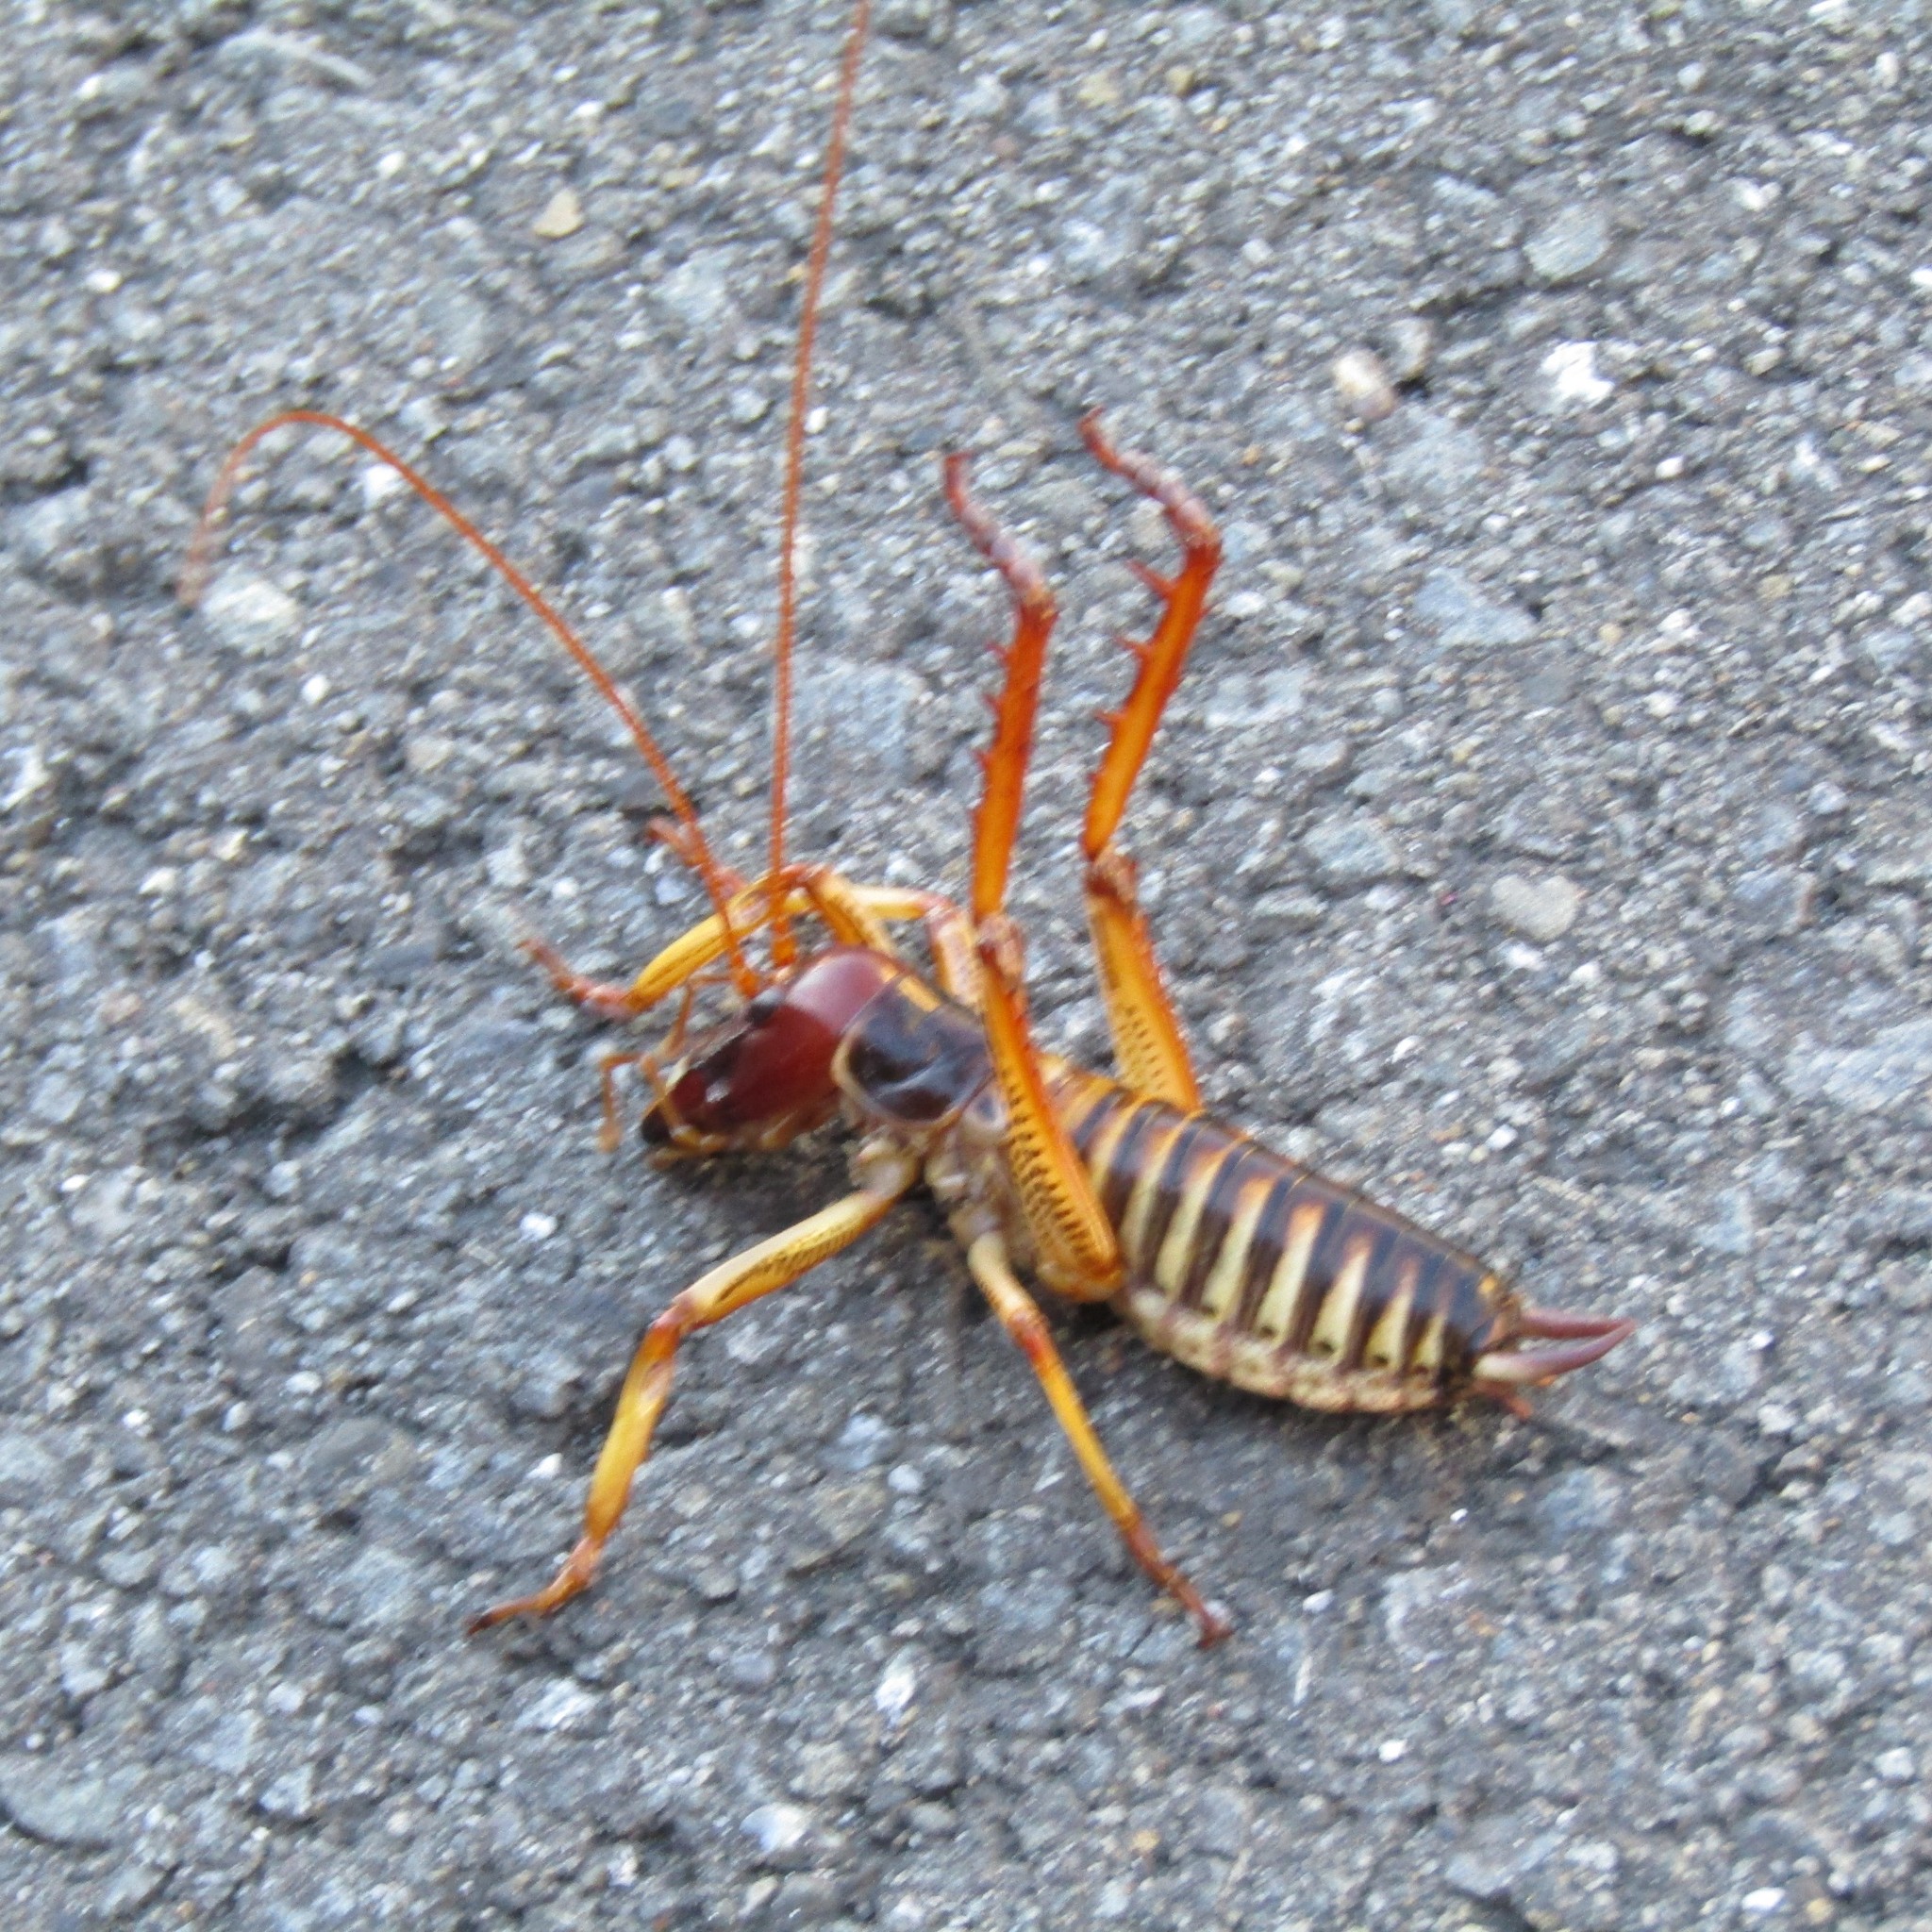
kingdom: Animalia
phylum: Arthropoda
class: Insecta
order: Orthoptera
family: Anostostomatidae
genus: Hemideina
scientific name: Hemideina crassidens
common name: Wellington tree weta
